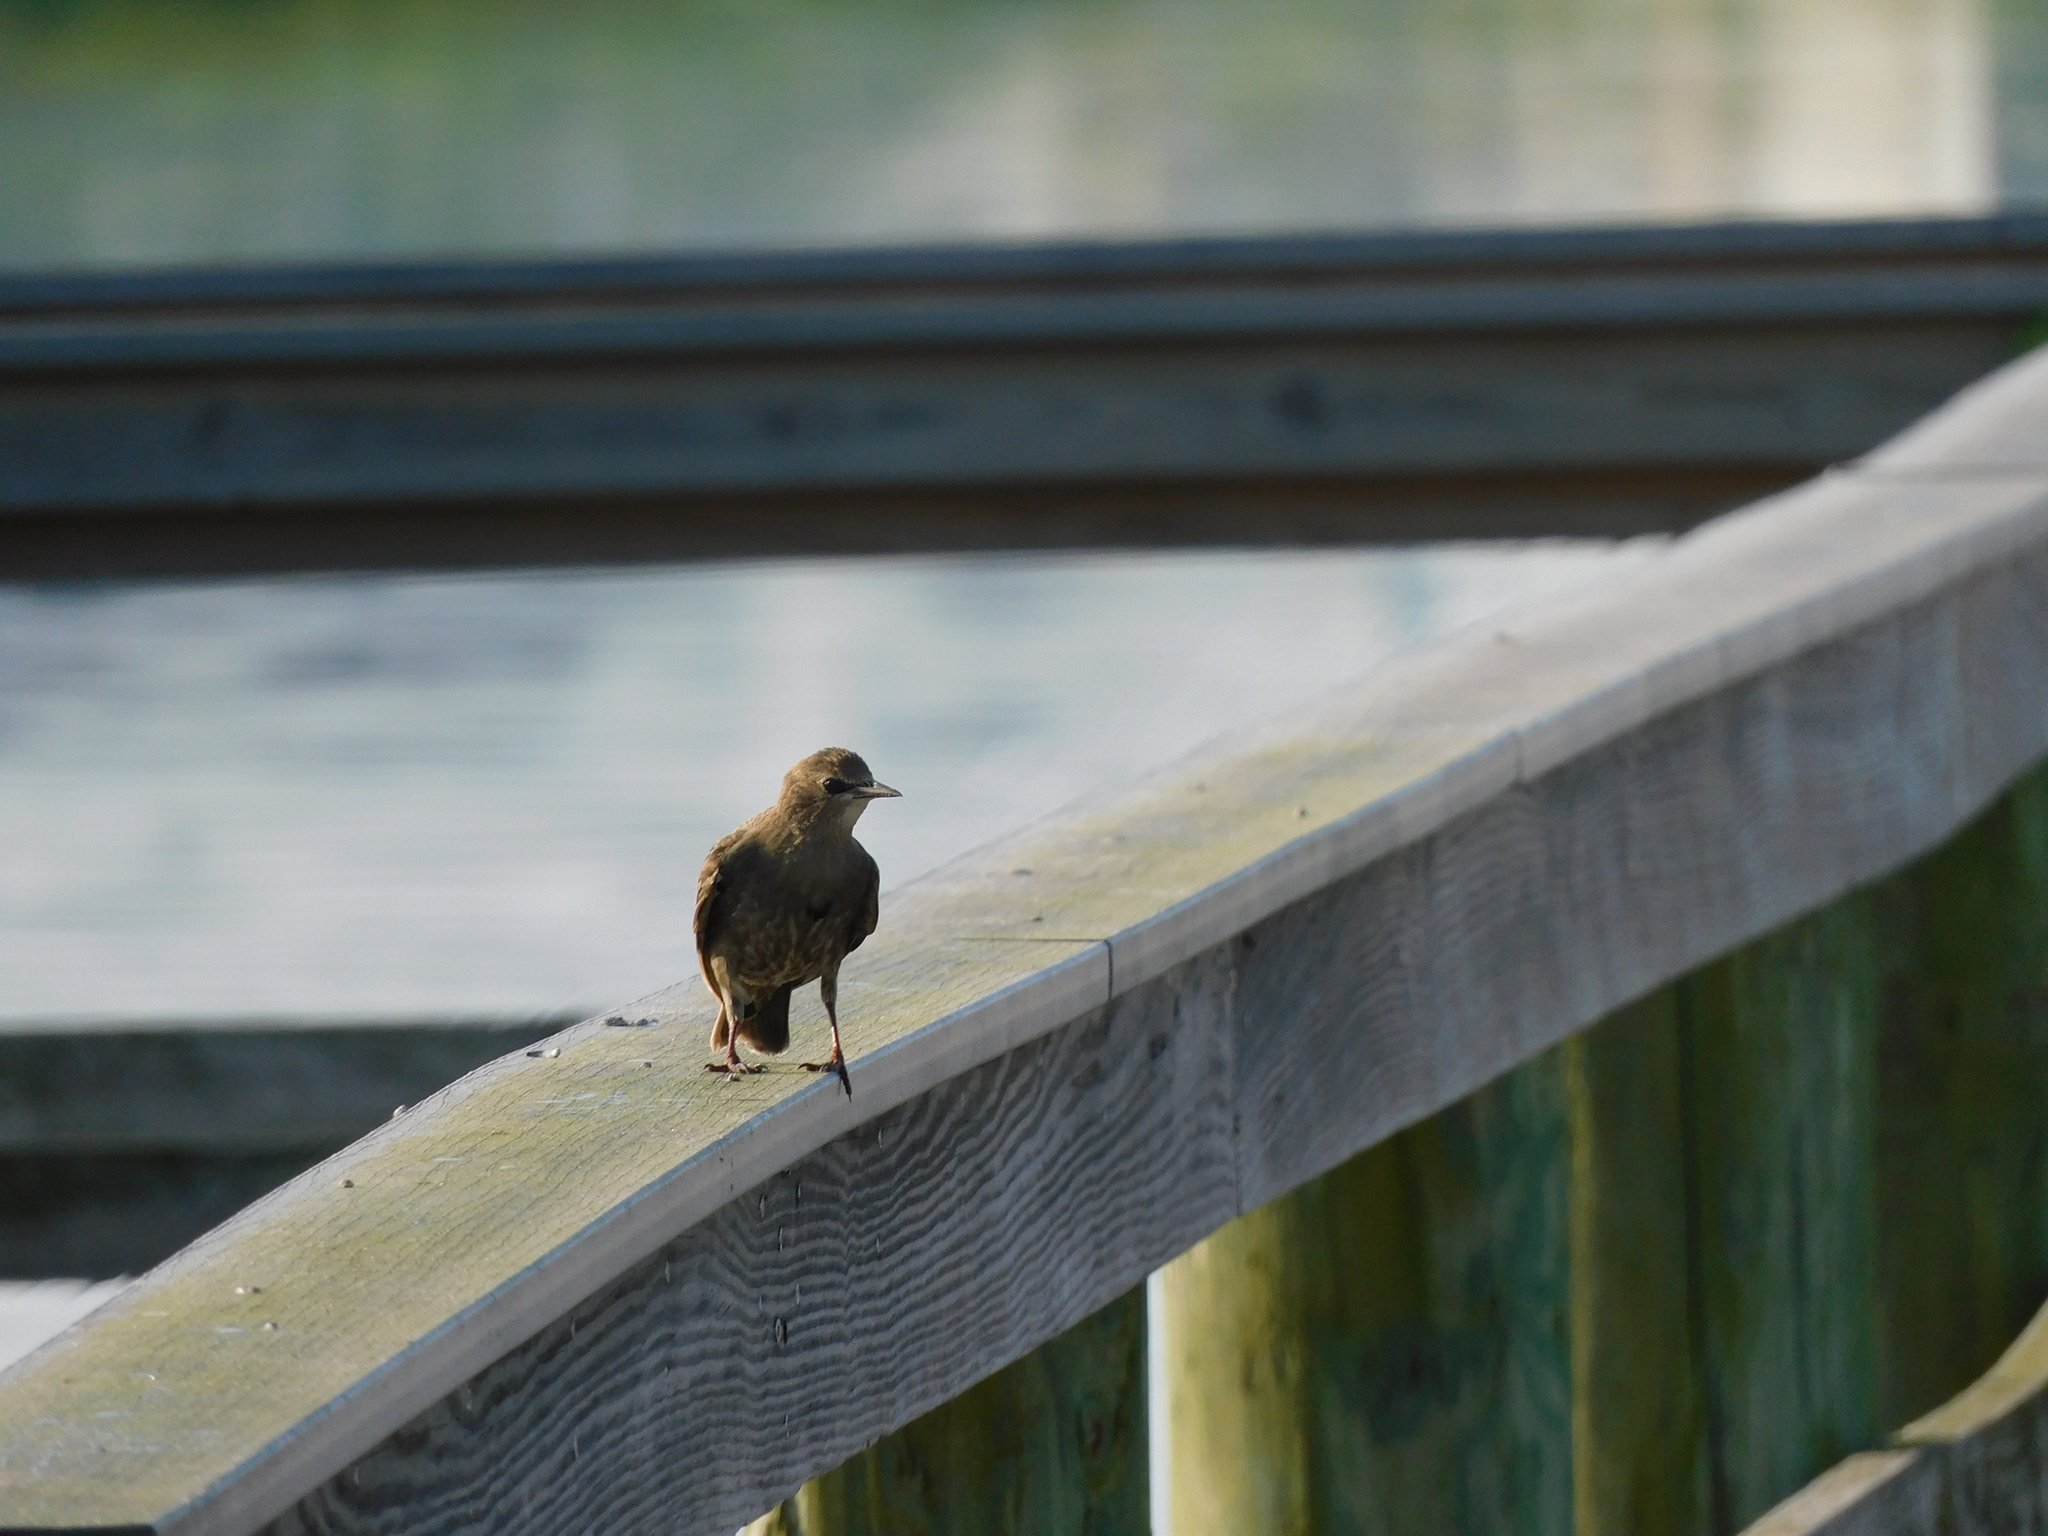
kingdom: Animalia
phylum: Chordata
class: Aves
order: Passeriformes
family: Sturnidae
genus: Sturnus
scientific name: Sturnus vulgaris
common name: Common starling
